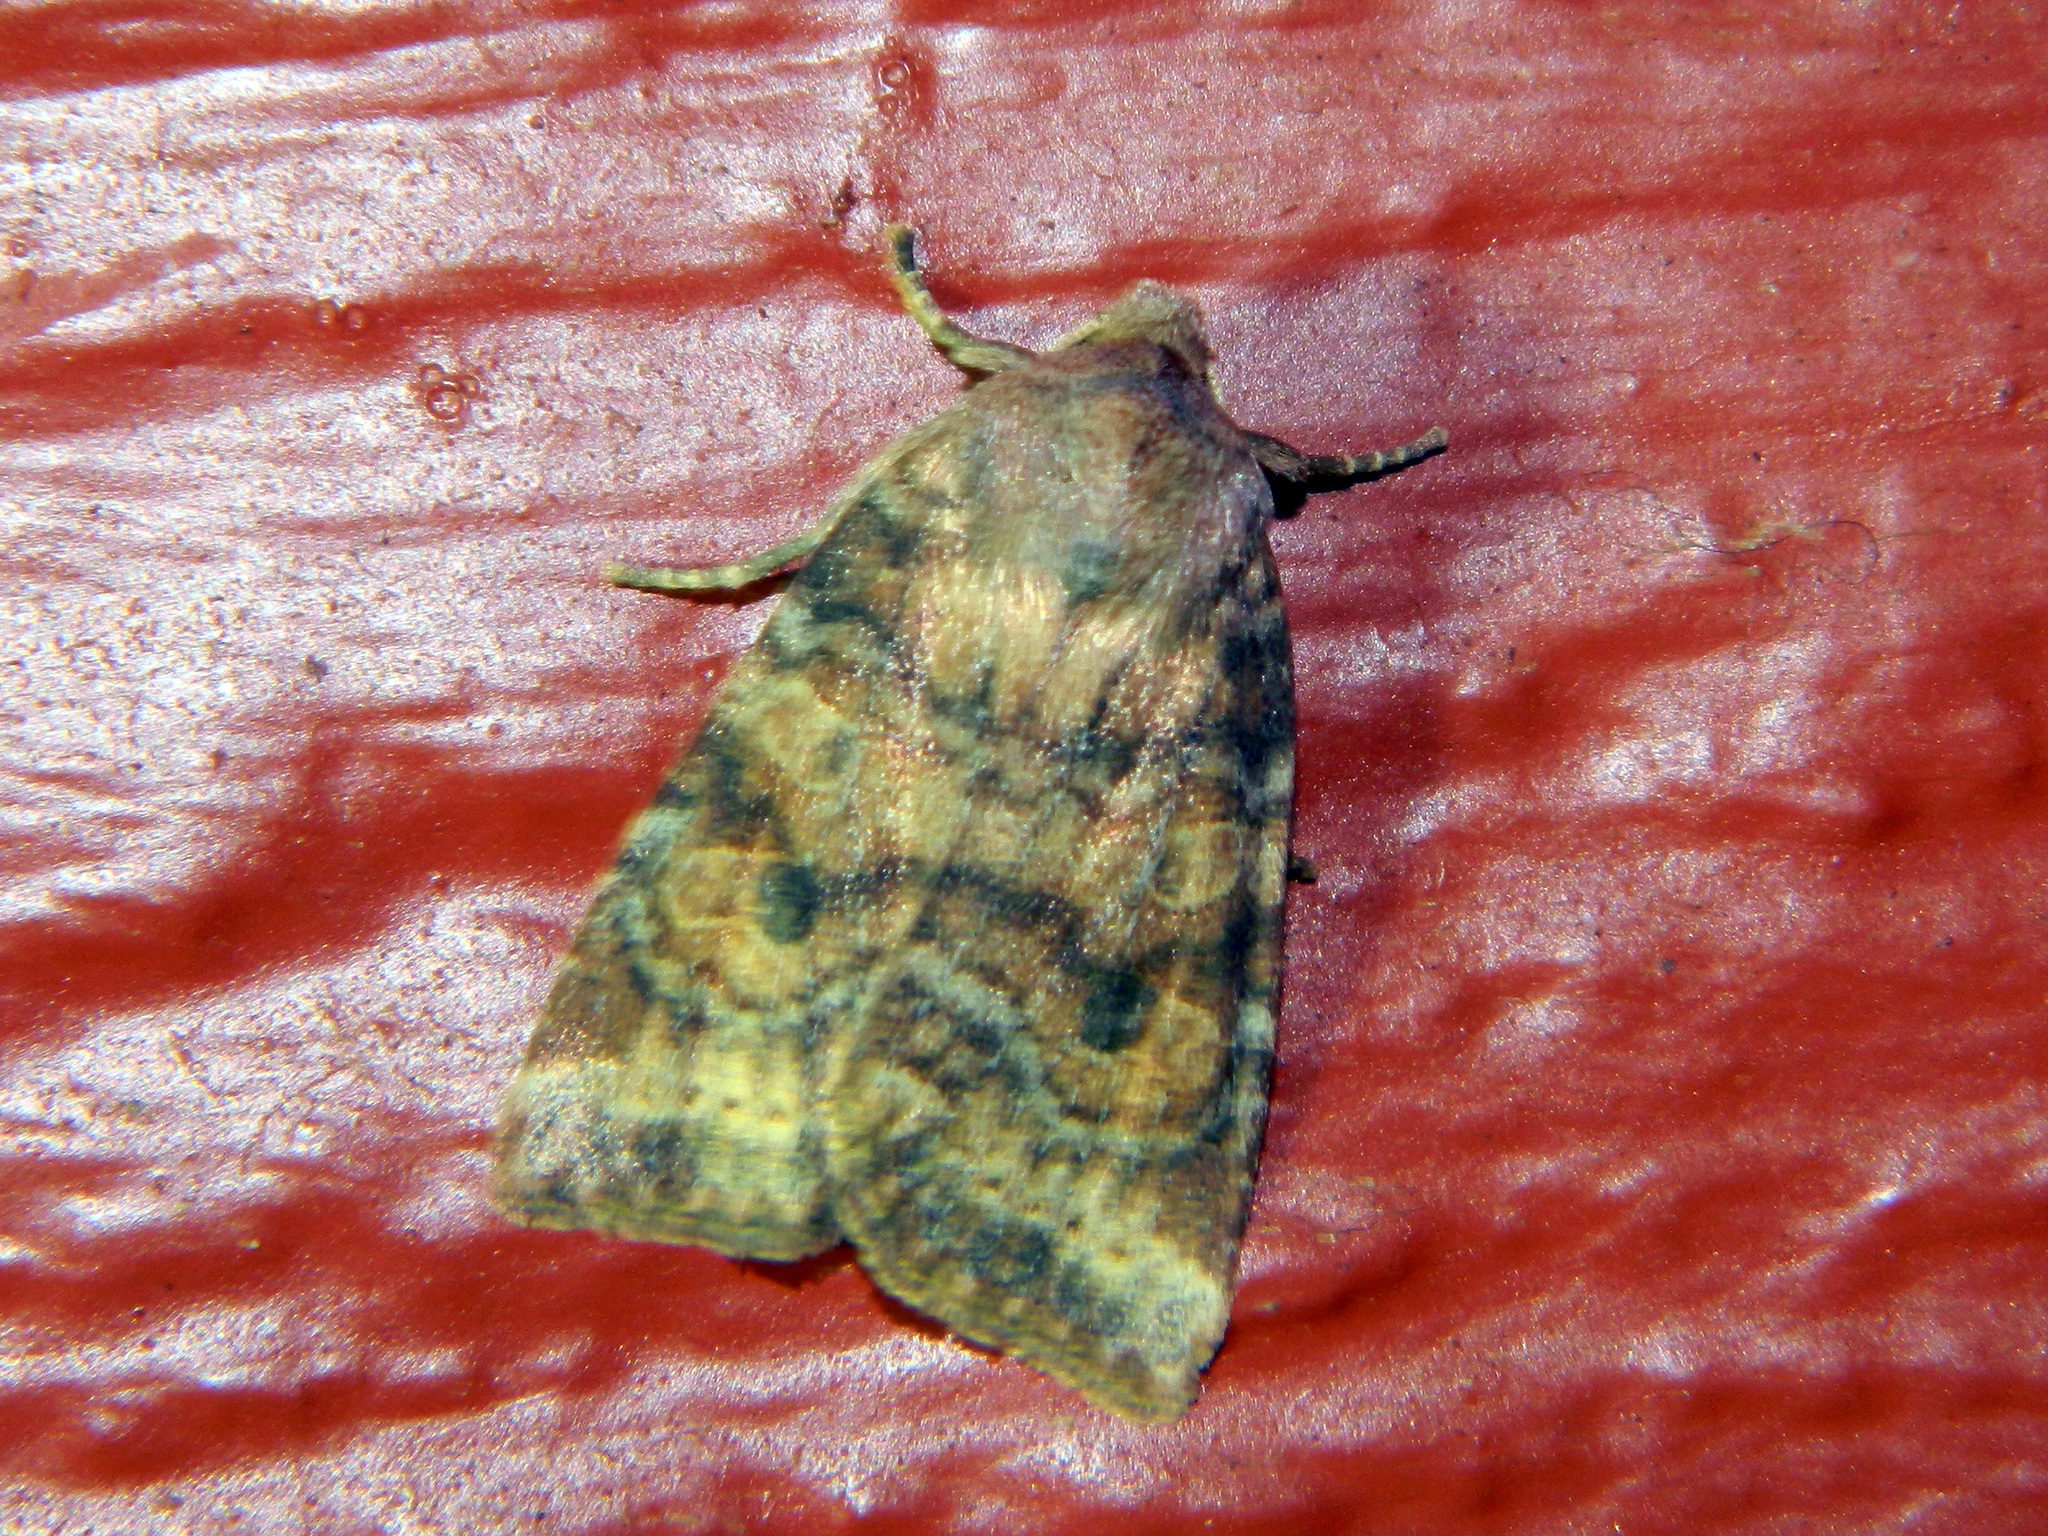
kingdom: Animalia
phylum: Arthropoda
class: Insecta
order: Lepidoptera
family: Noctuidae
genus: Anathix
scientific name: Anathix puta
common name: Puta sallow
